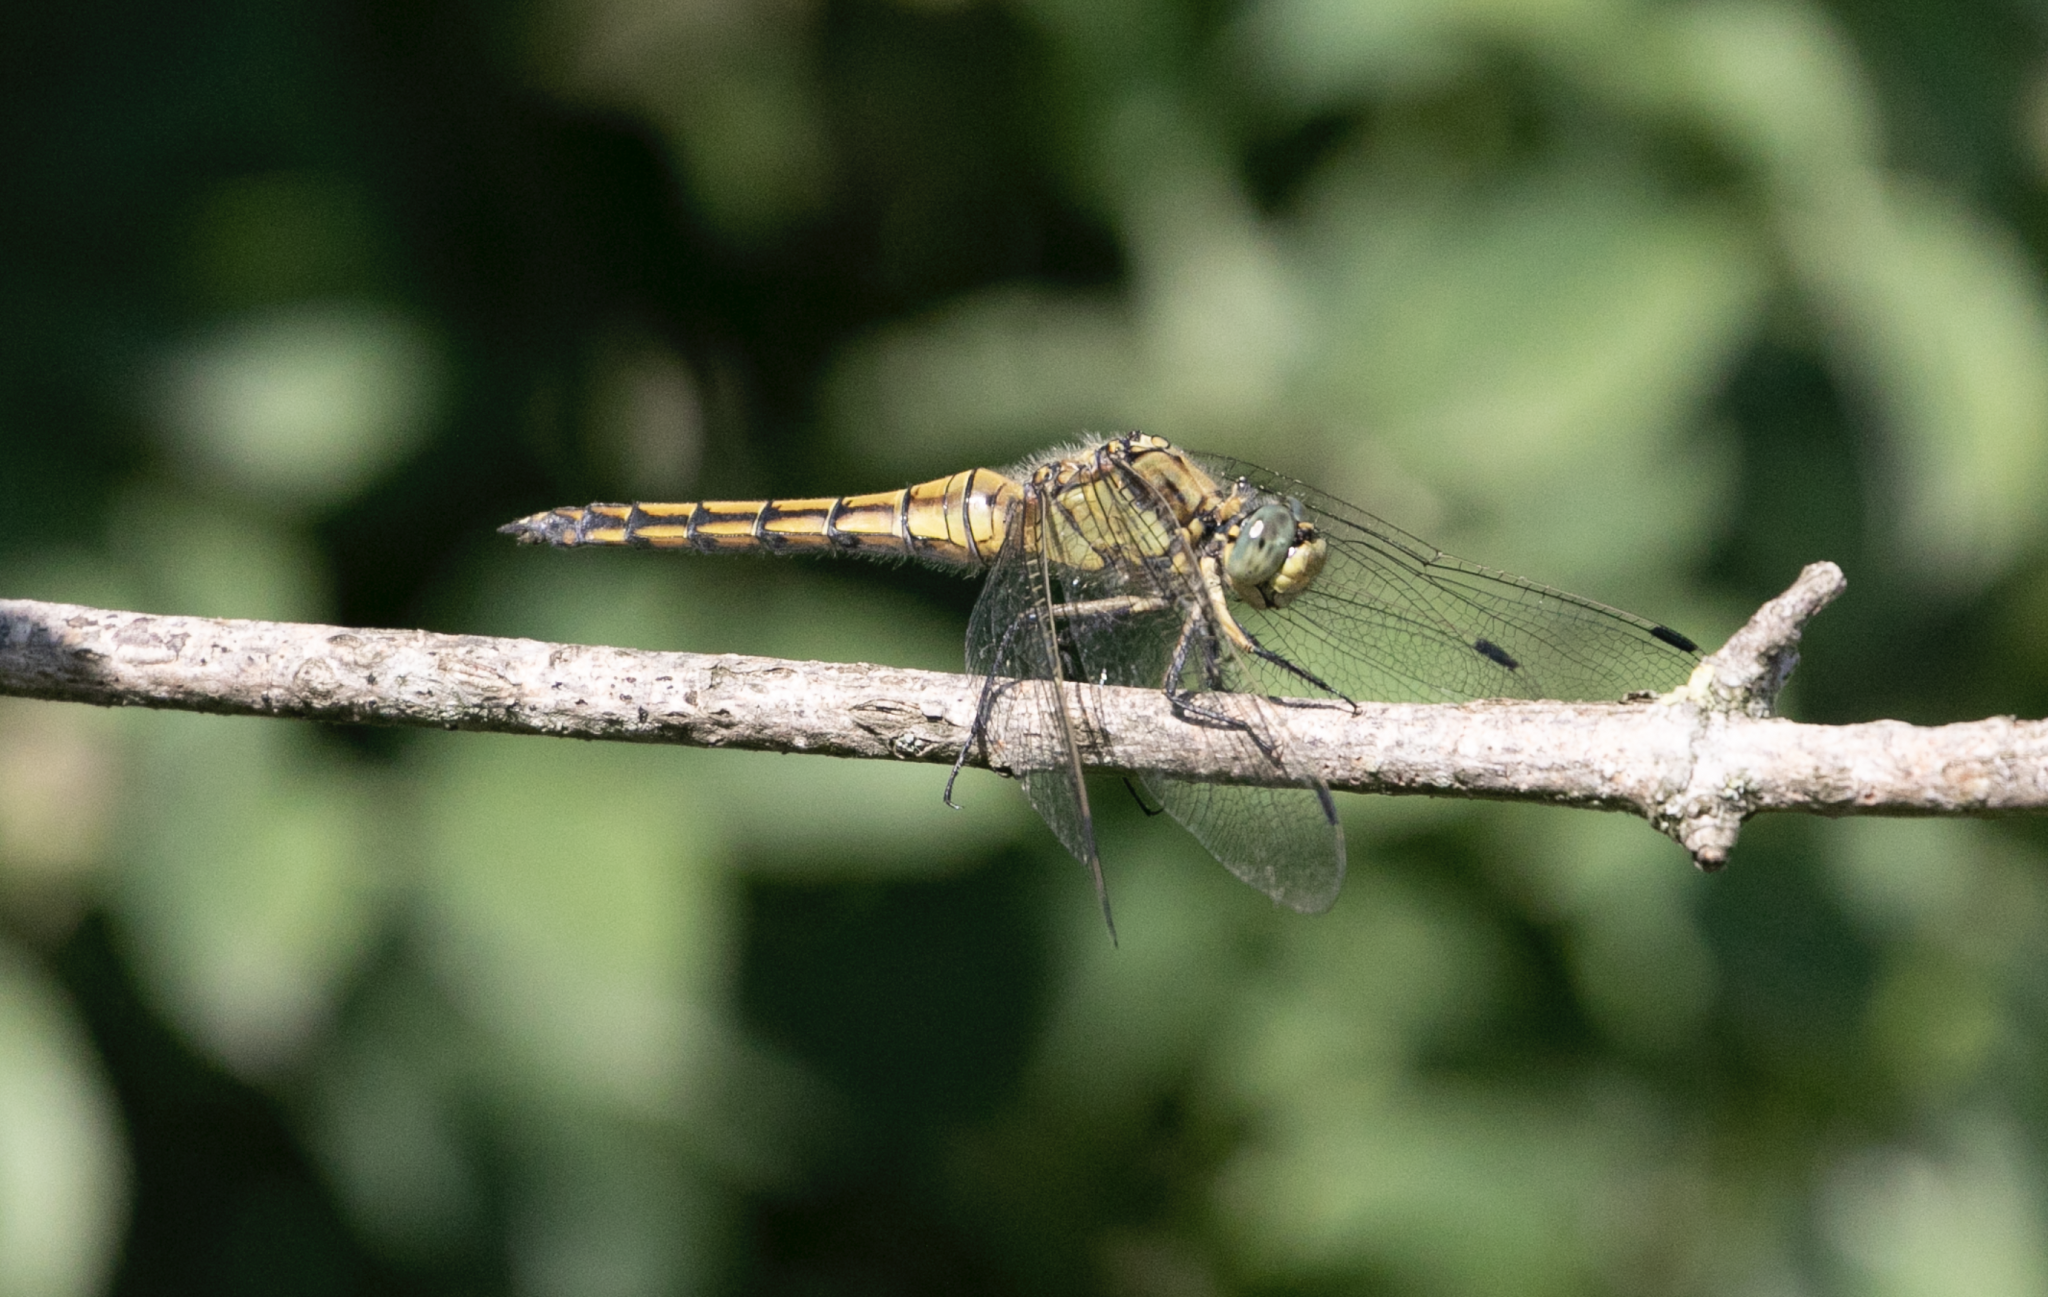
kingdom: Animalia
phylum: Arthropoda
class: Insecta
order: Odonata
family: Libellulidae
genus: Orthetrum
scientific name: Orthetrum cancellatum
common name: Black-tailed skimmer
